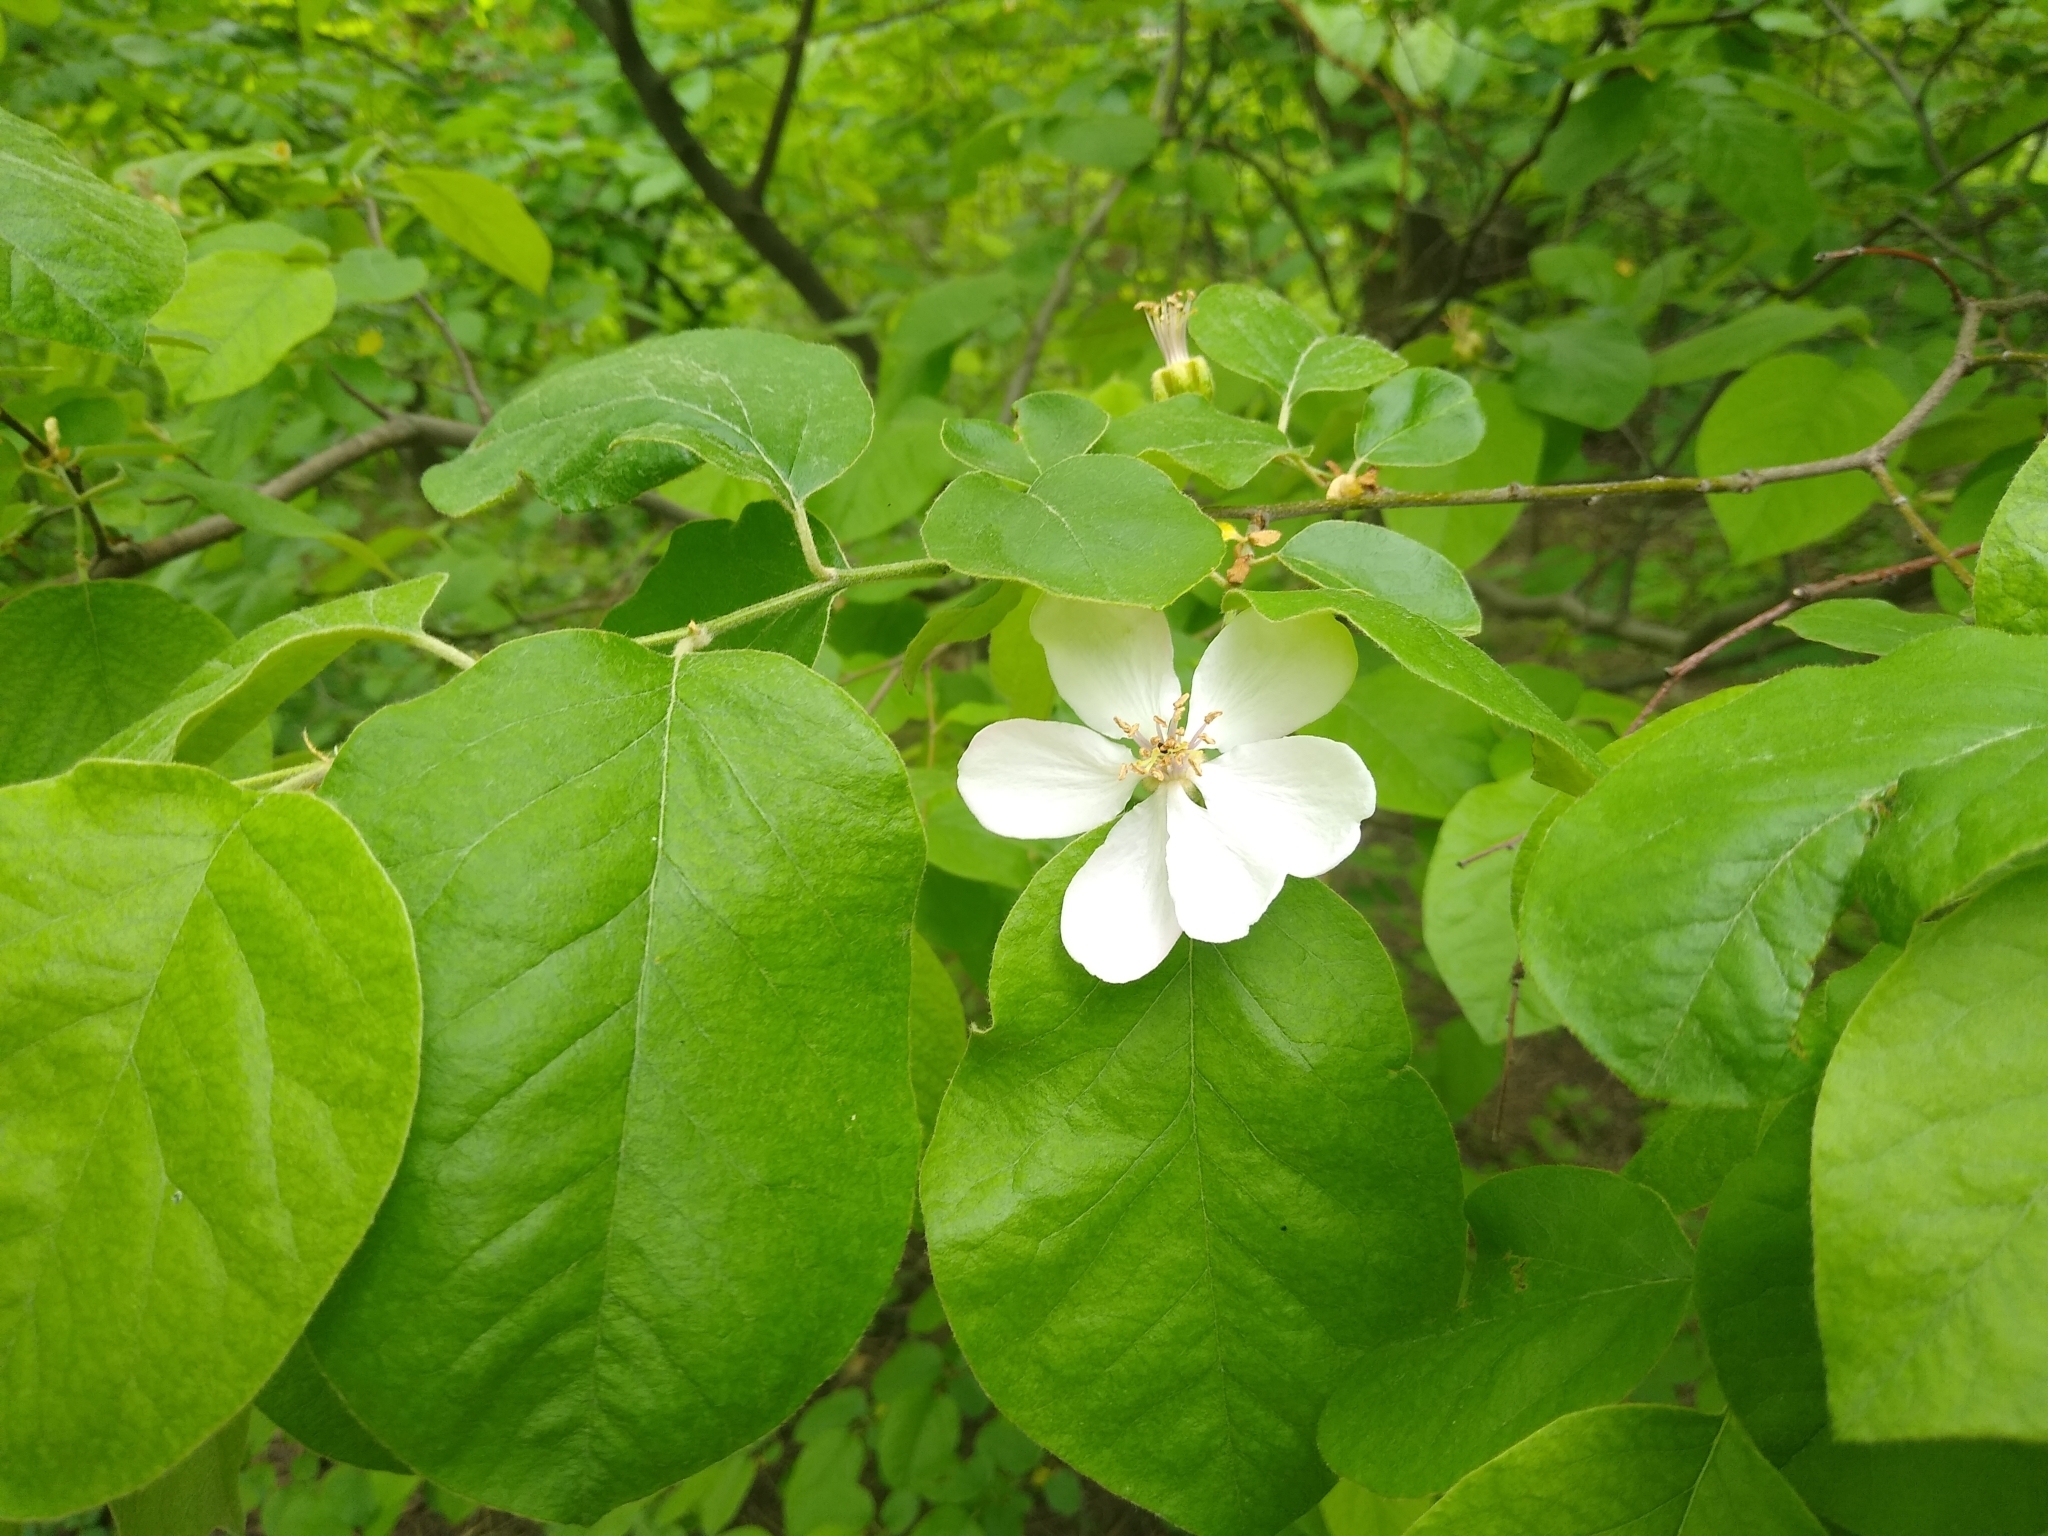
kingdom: Plantae
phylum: Tracheophyta
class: Magnoliopsida
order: Rosales
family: Rosaceae
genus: Cydonia
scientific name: Cydonia oblonga
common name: Quince
